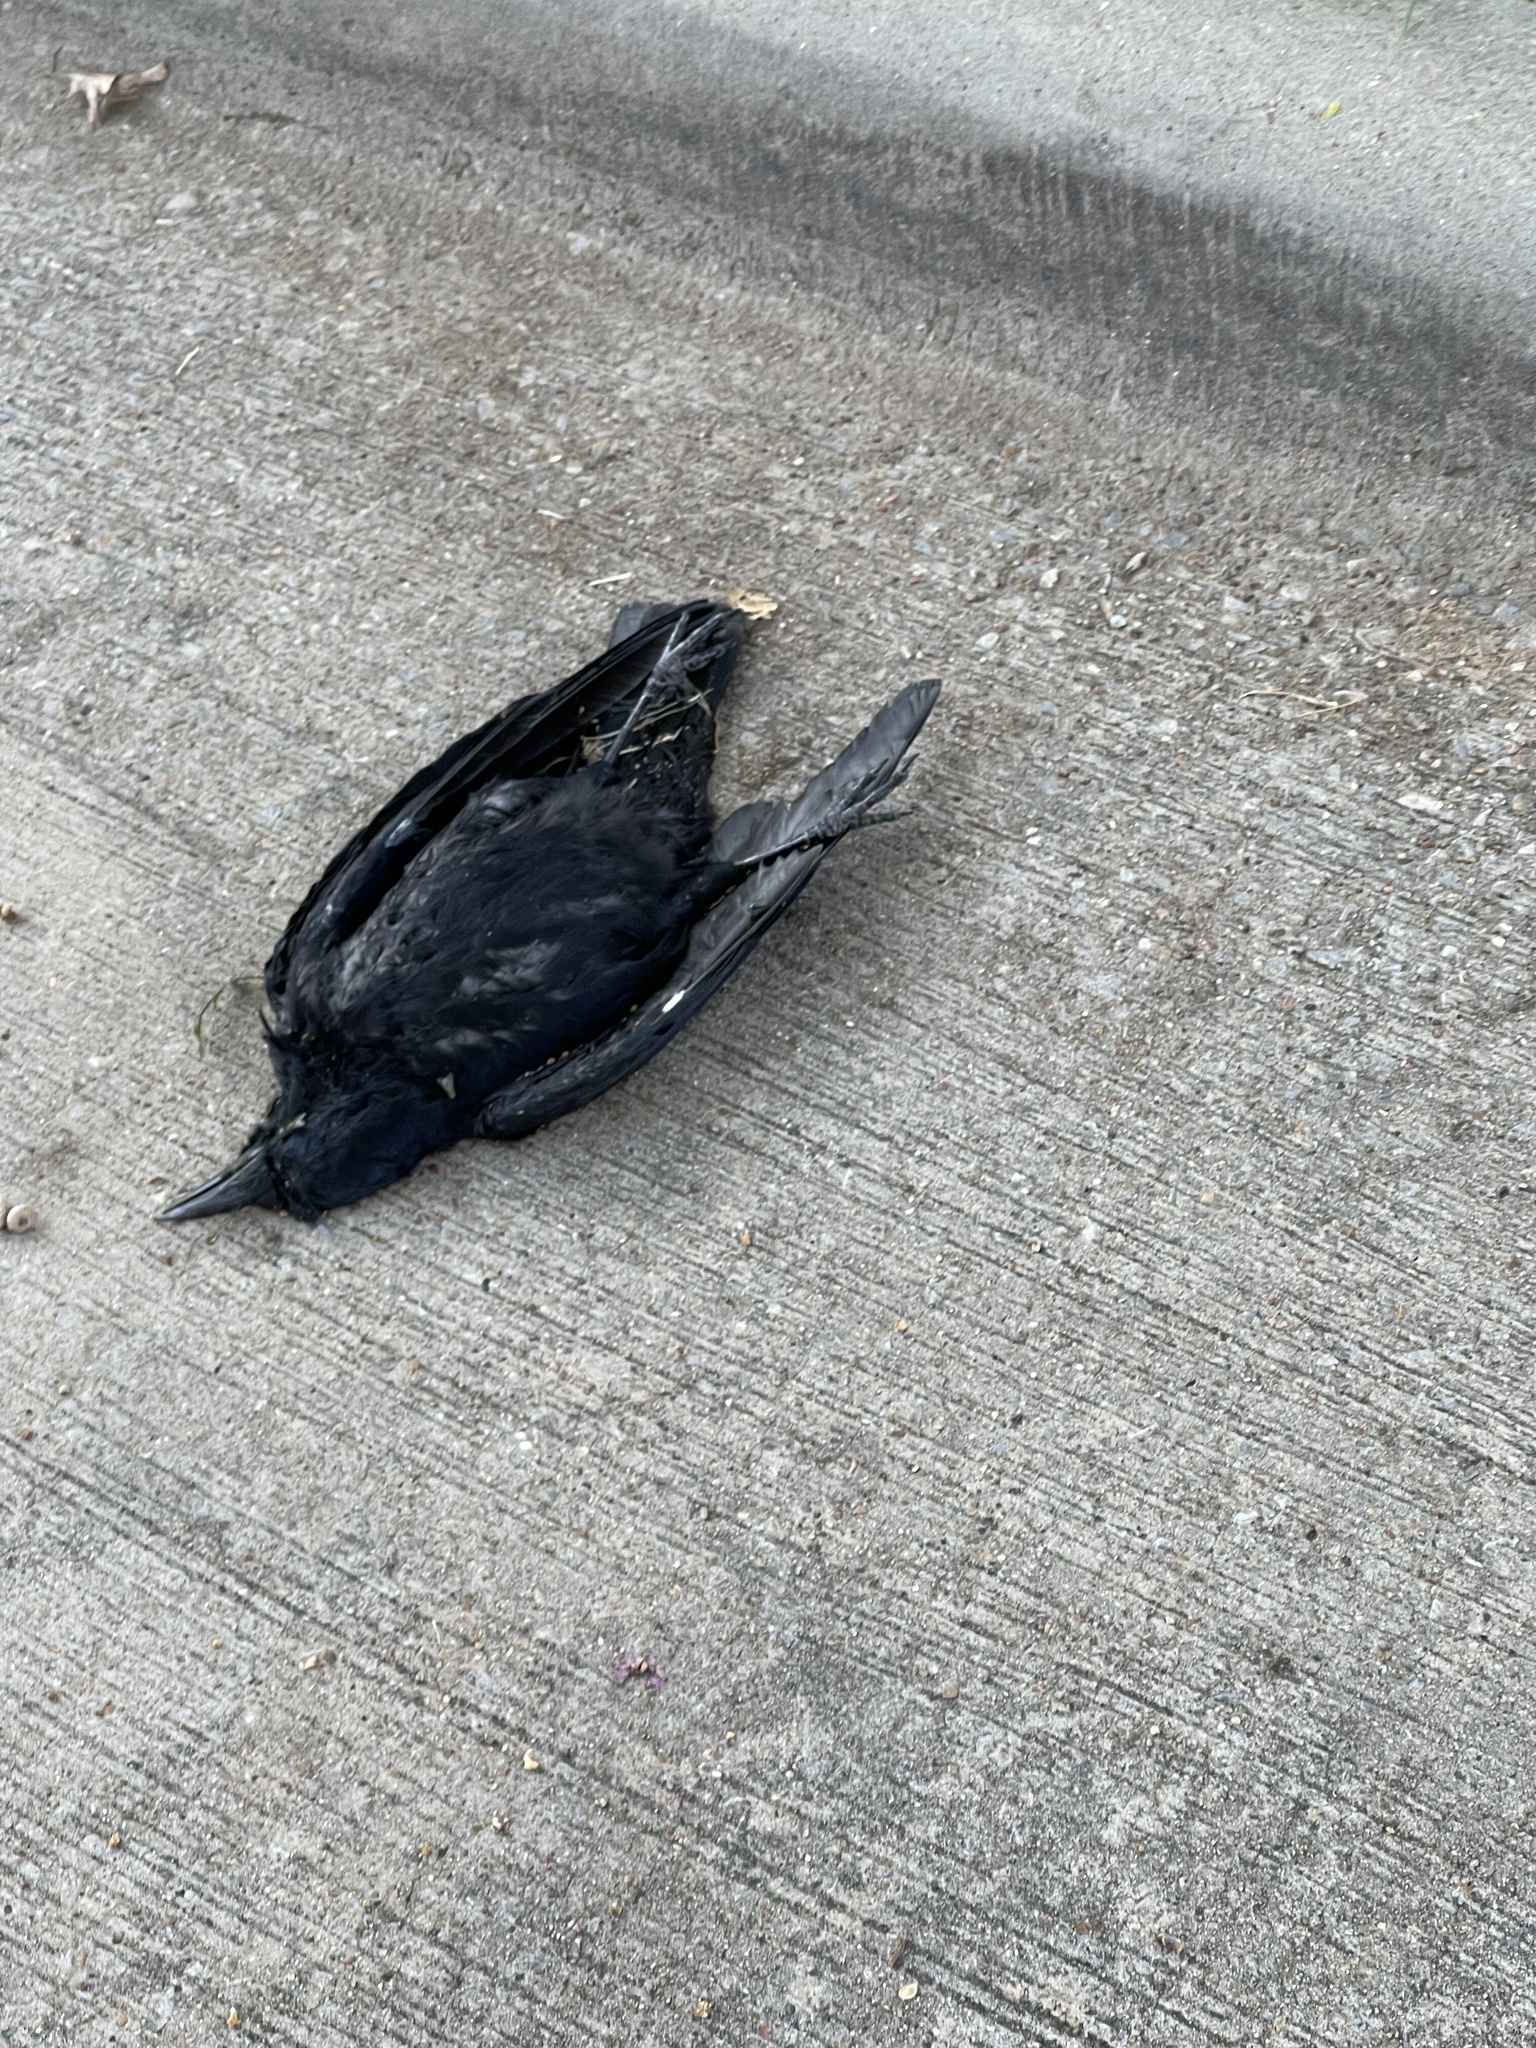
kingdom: Animalia
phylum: Chordata
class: Aves
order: Passeriformes
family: Corvidae
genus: Corvus
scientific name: Corvus brachyrhynchos
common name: American crow
